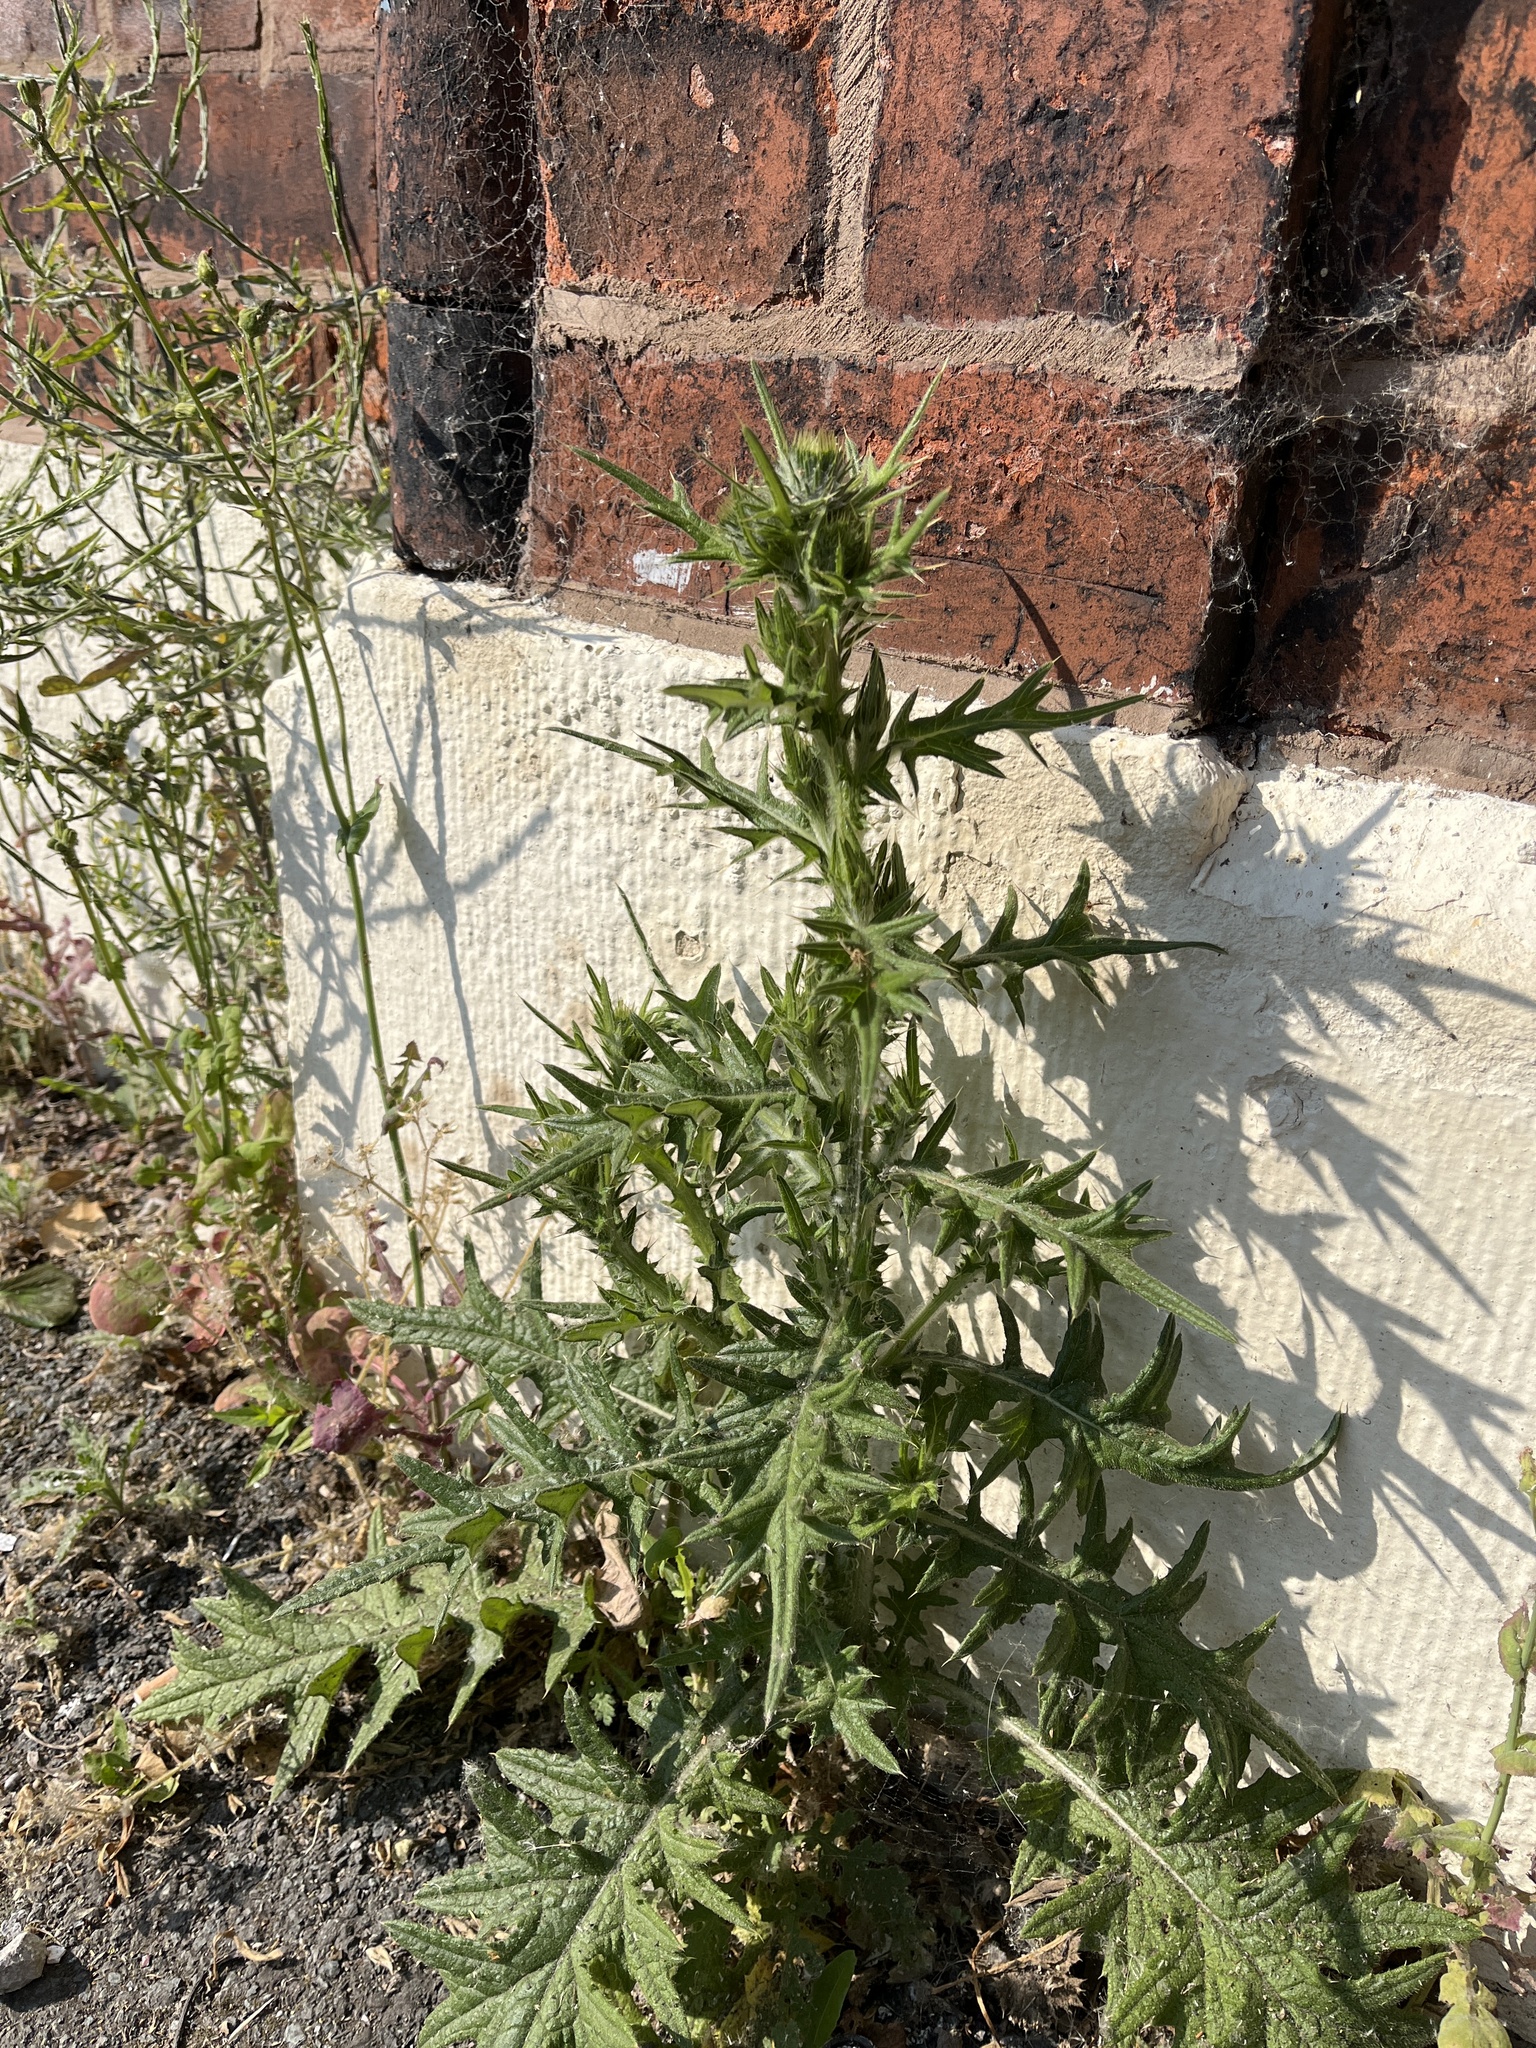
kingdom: Plantae
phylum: Tracheophyta
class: Magnoliopsida
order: Asterales
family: Asteraceae
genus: Cirsium
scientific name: Cirsium vulgare
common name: Bull thistle
